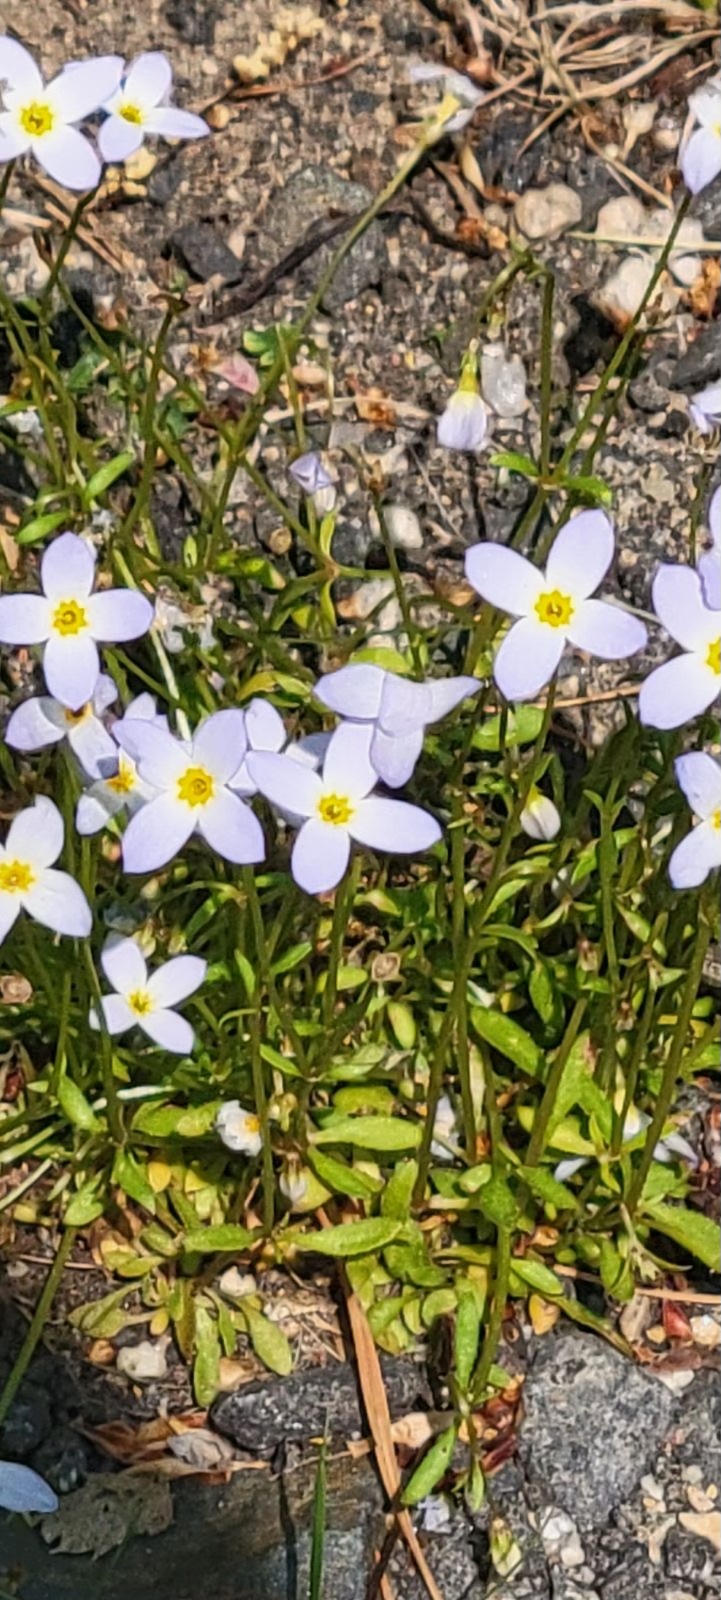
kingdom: Plantae
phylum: Tracheophyta
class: Magnoliopsida
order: Gentianales
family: Rubiaceae
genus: Houstonia
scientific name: Houstonia caerulea
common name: Bluets
